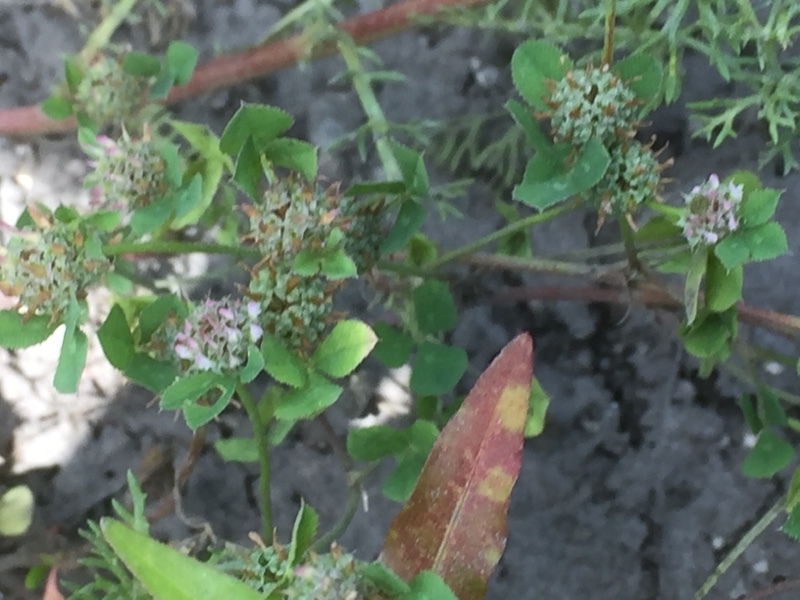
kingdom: Plantae
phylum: Tracheophyta
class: Magnoliopsida
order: Fabales
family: Fabaceae
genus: Trifolium
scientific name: Trifolium glomeratum
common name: Clustered clover
